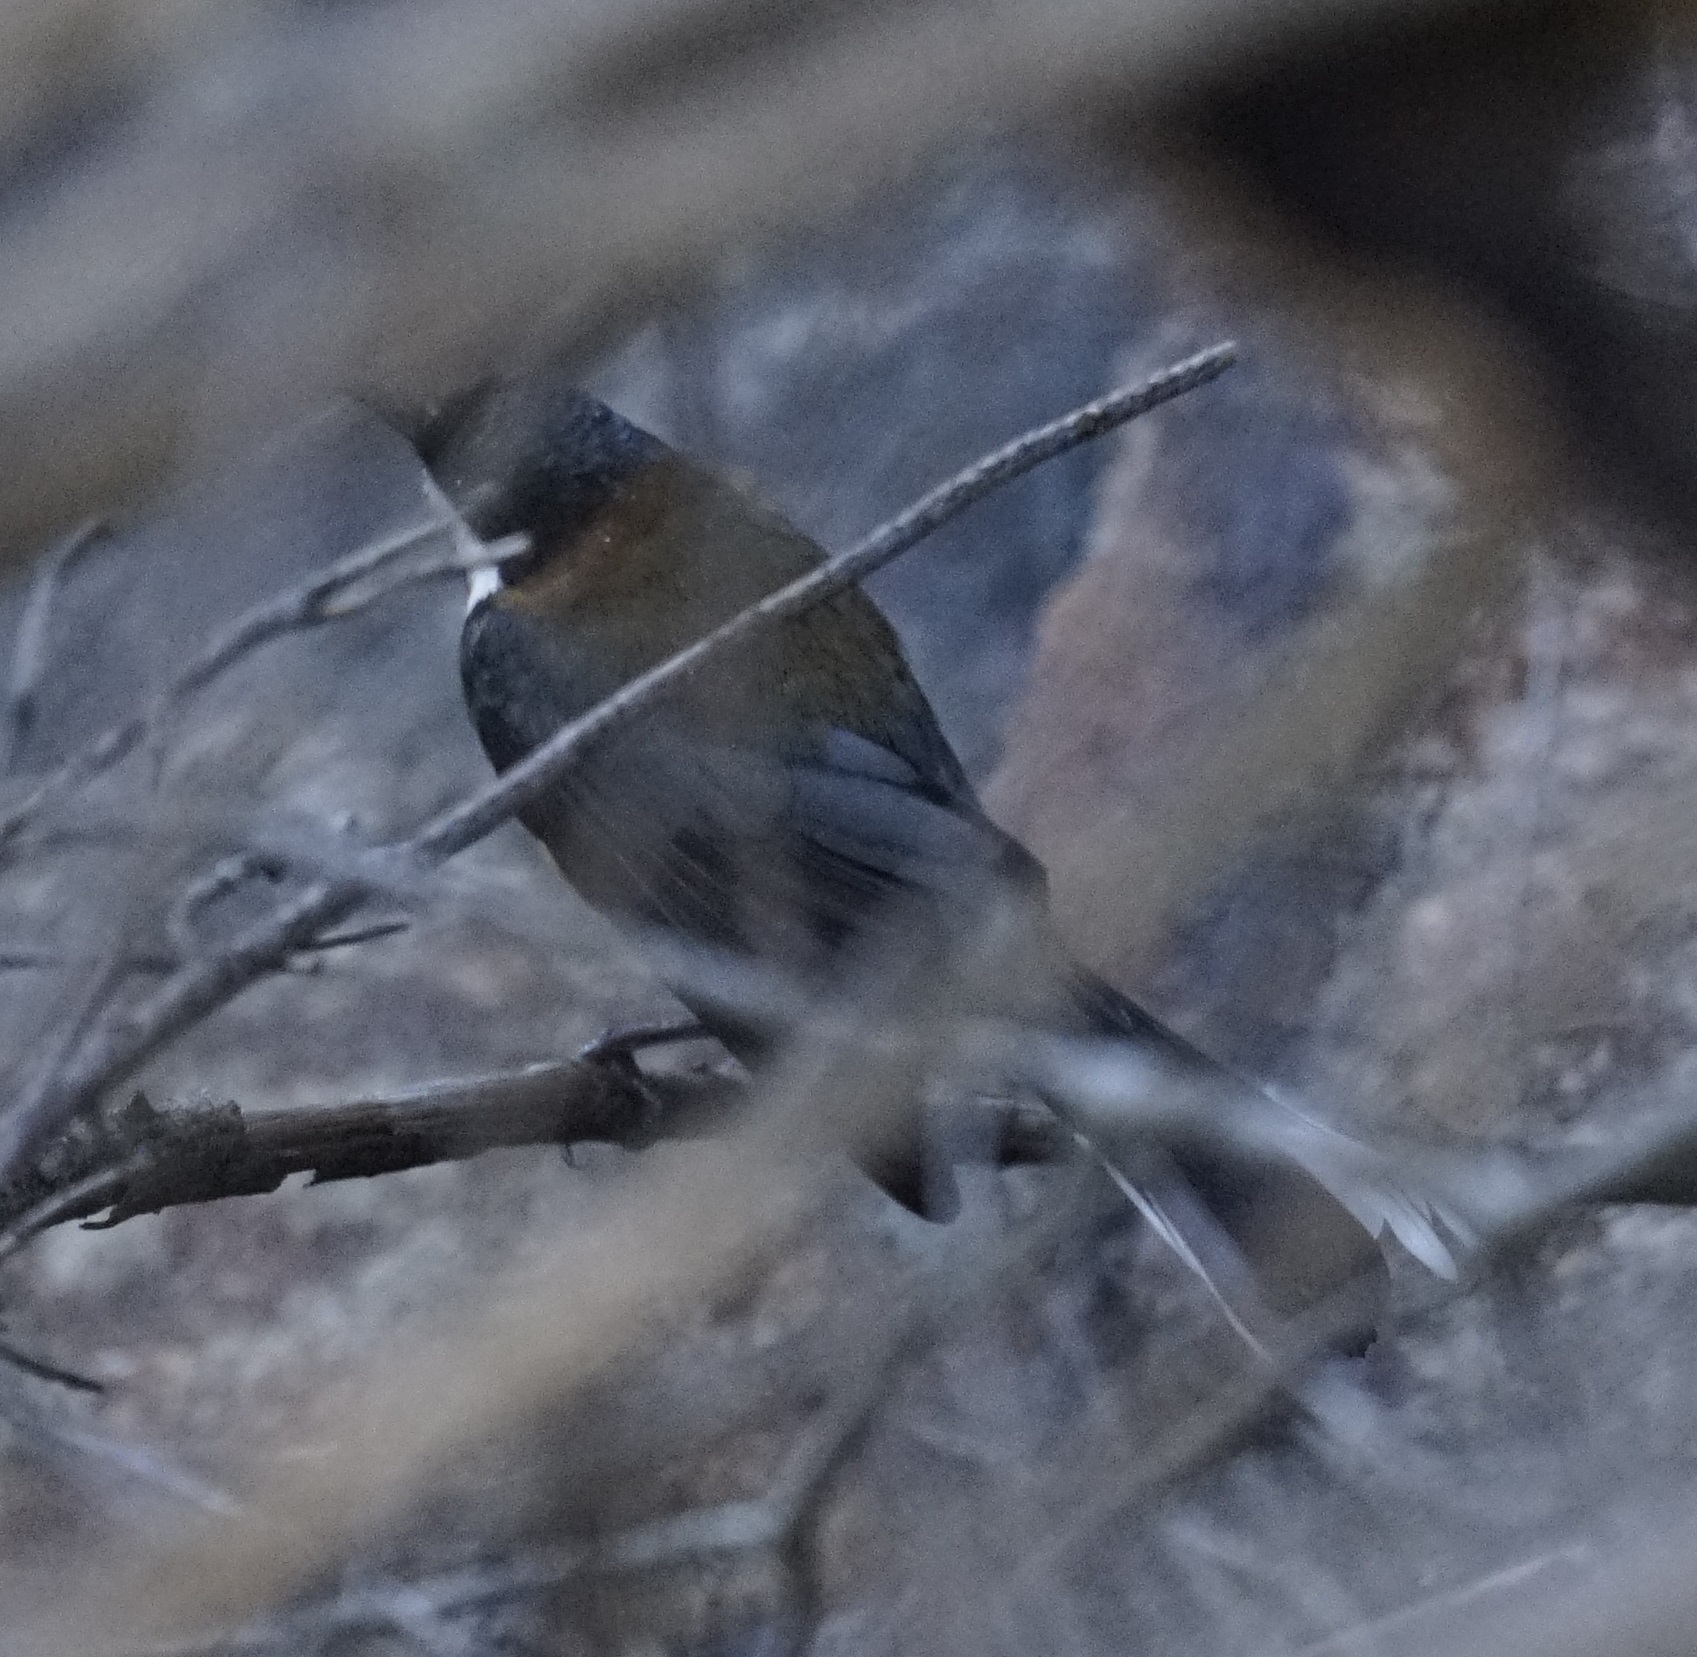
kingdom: Animalia
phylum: Chordata
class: Aves
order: Passeriformes
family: Meliphagidae
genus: Acanthorhynchus
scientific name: Acanthorhynchus tenuirostris
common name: Eastern spinebill
